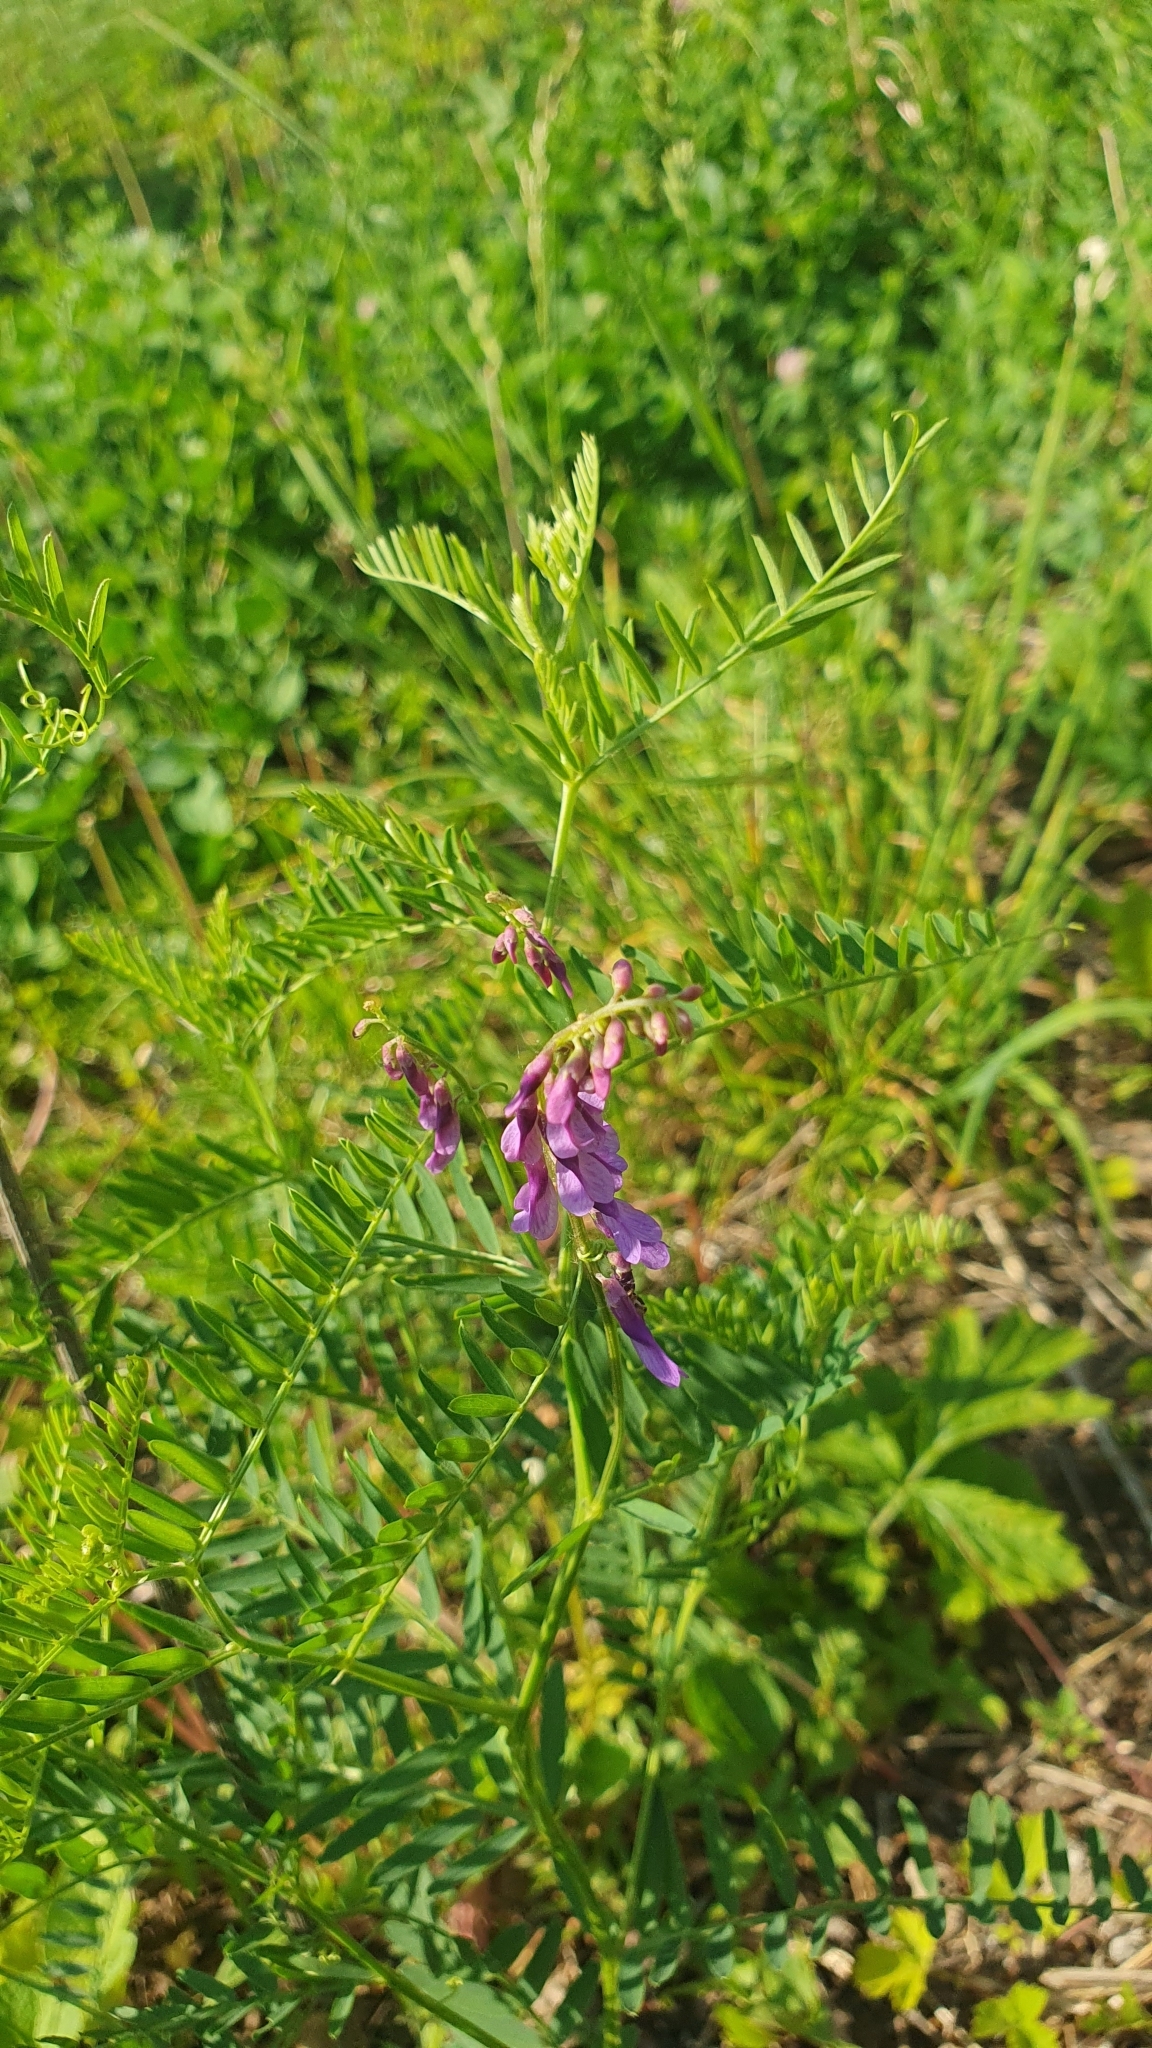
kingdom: Plantae
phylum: Tracheophyta
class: Magnoliopsida
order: Fabales
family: Fabaceae
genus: Vicia
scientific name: Vicia tenuifolia
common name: Fine-leaved vetch
